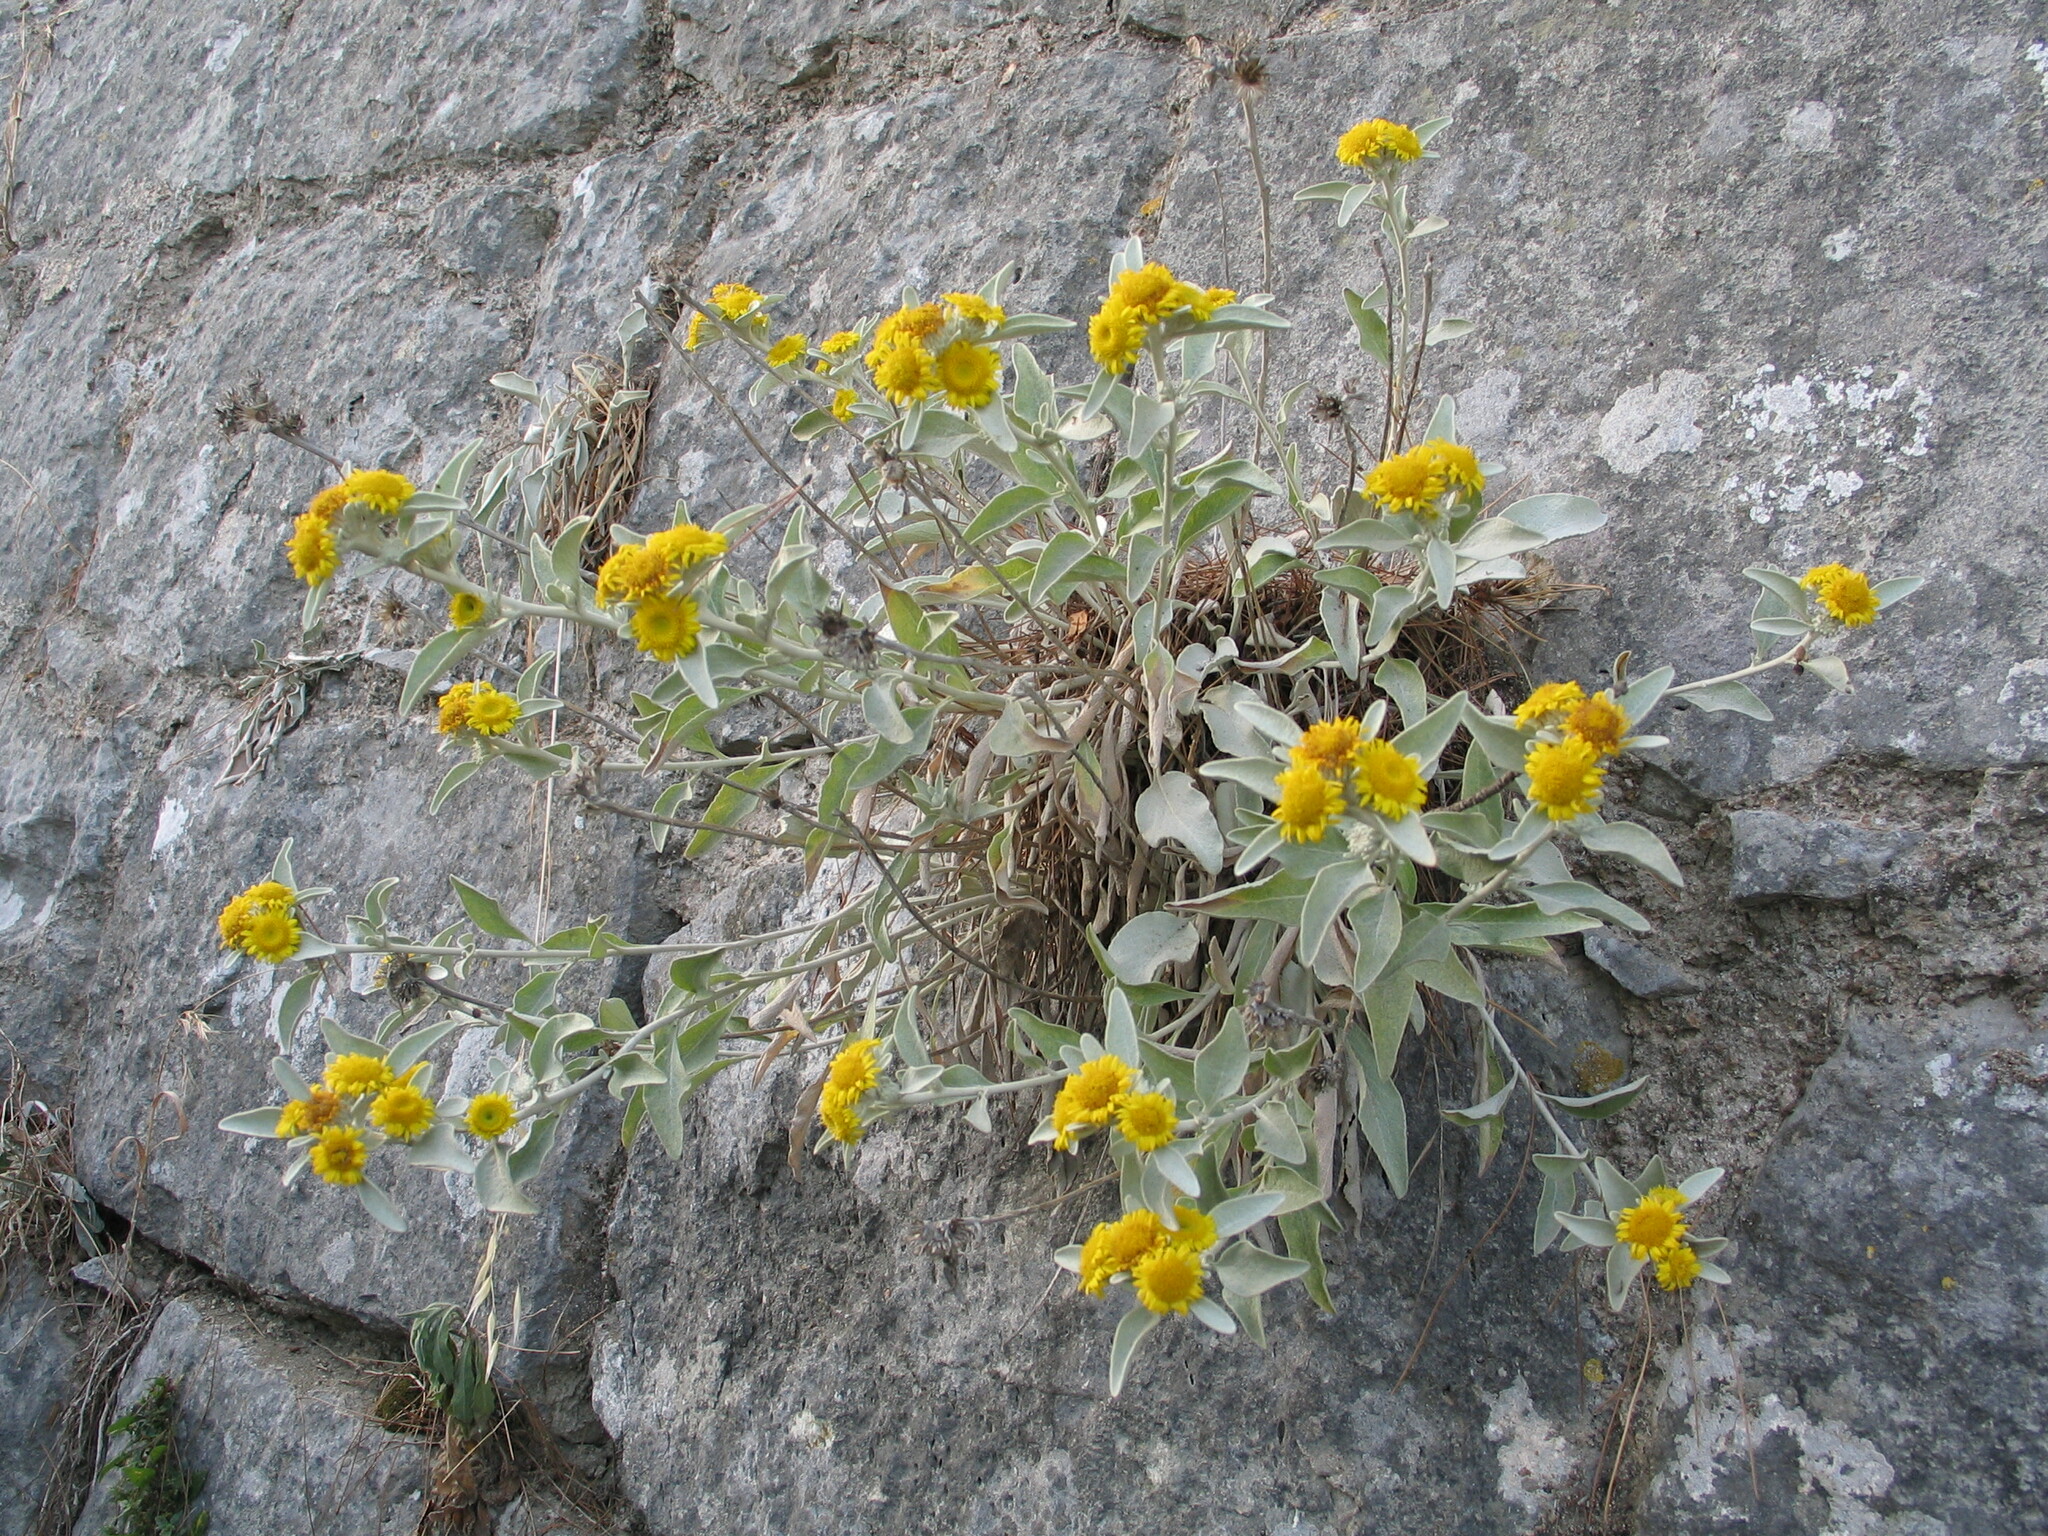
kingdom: Plantae
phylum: Tracheophyta
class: Magnoliopsida
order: Asterales
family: Asteraceae
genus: Pentanema
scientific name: Pentanema verbascifolium
